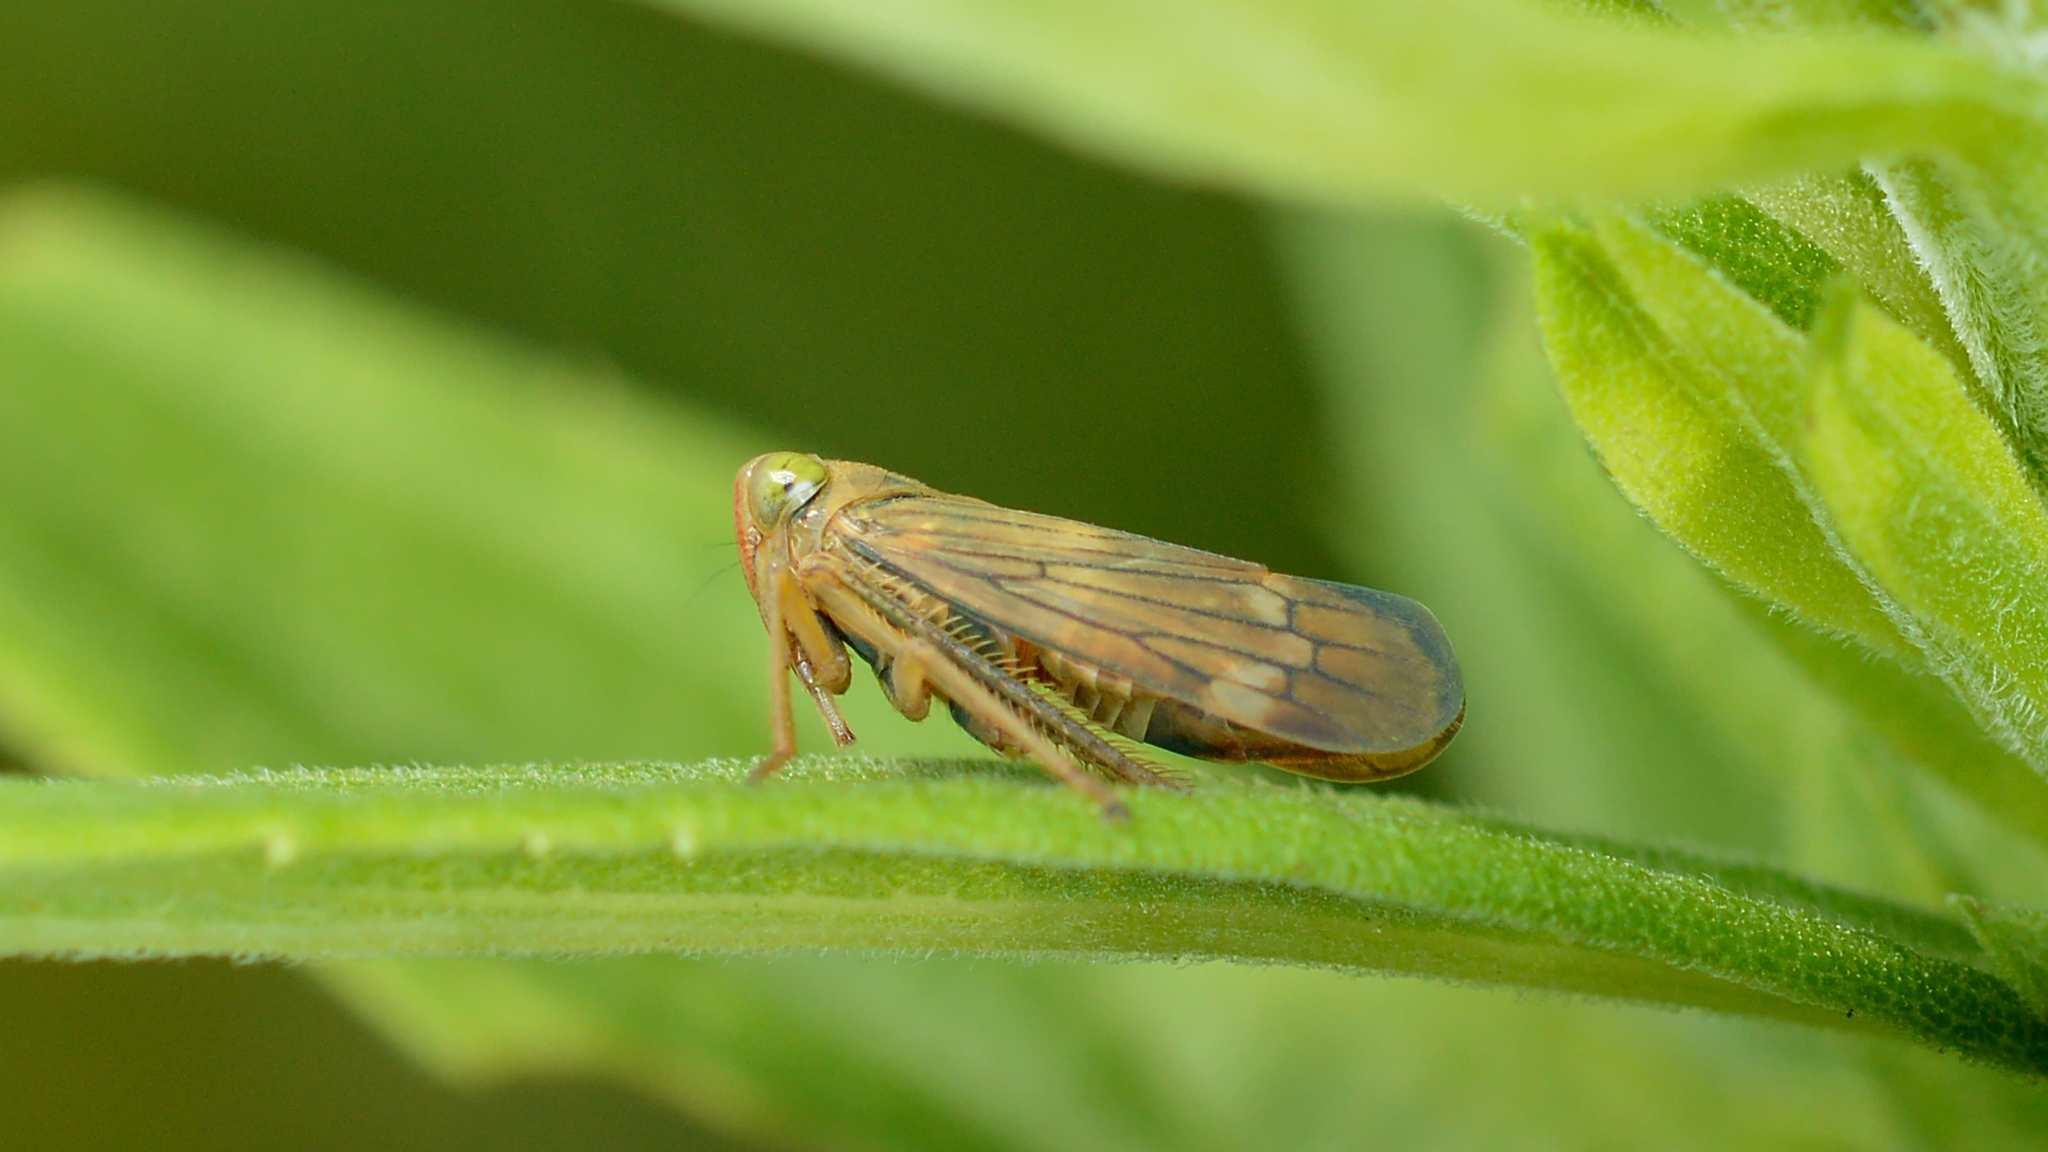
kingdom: Animalia
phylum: Arthropoda
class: Insecta
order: Hemiptera
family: Cicadellidae
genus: Jikradia
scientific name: Jikradia olitoria
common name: Coppery leafhopper
